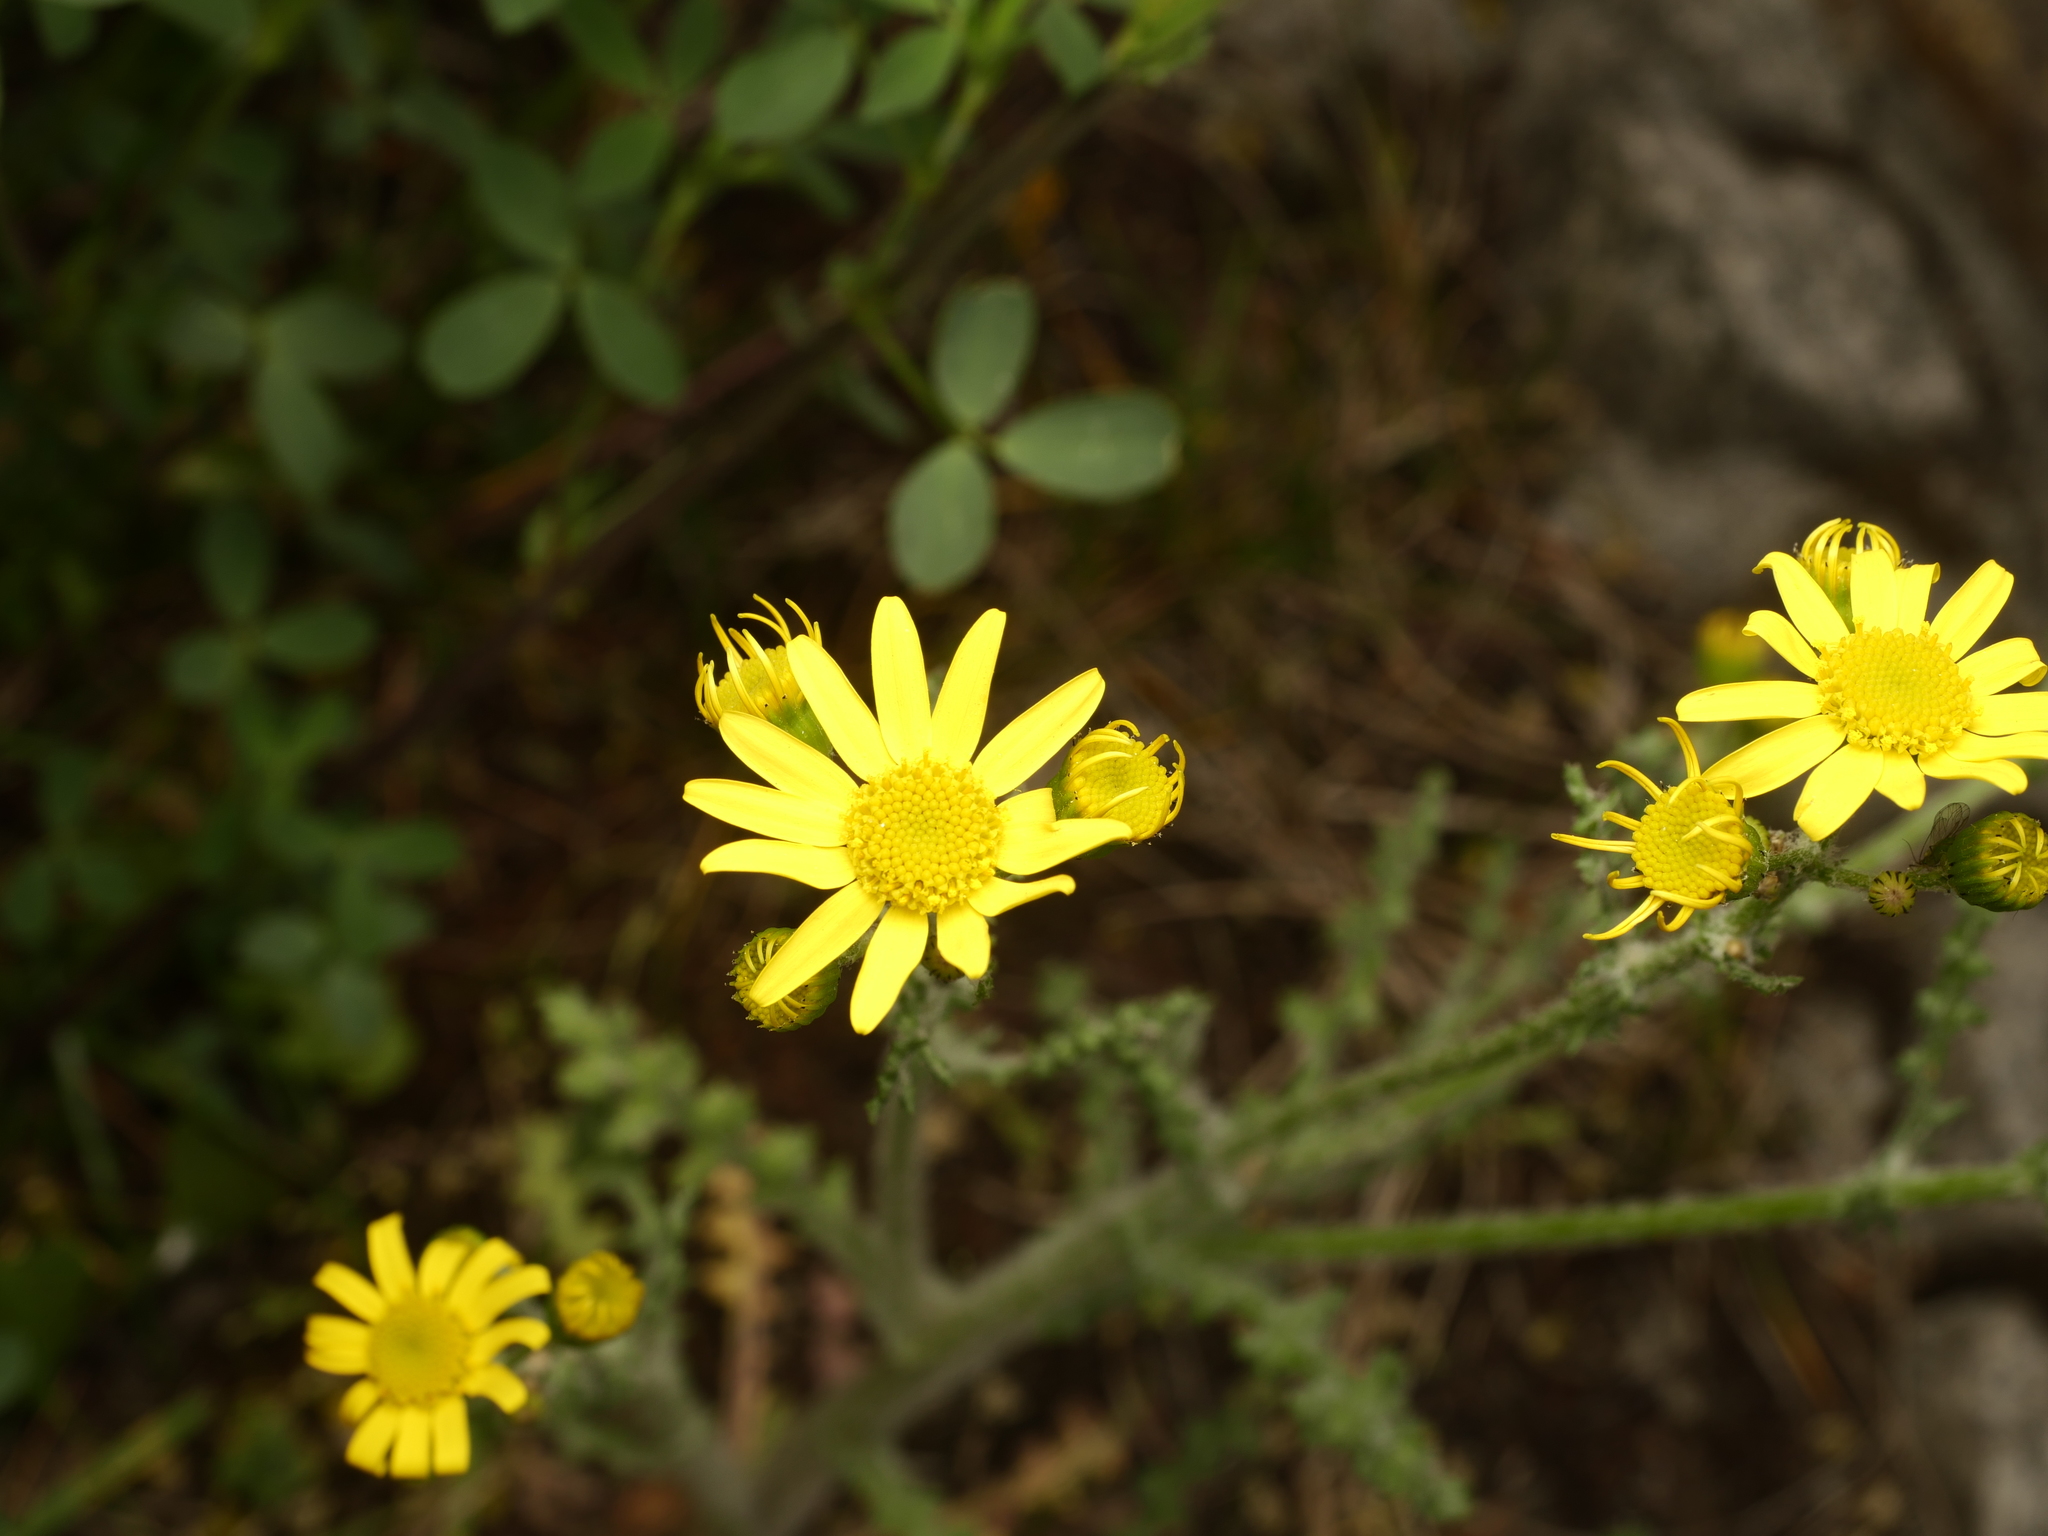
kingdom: Plantae
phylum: Tracheophyta
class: Magnoliopsida
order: Asterales
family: Asteraceae
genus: Senecio
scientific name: Senecio vernalis
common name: Eastern groundsel
